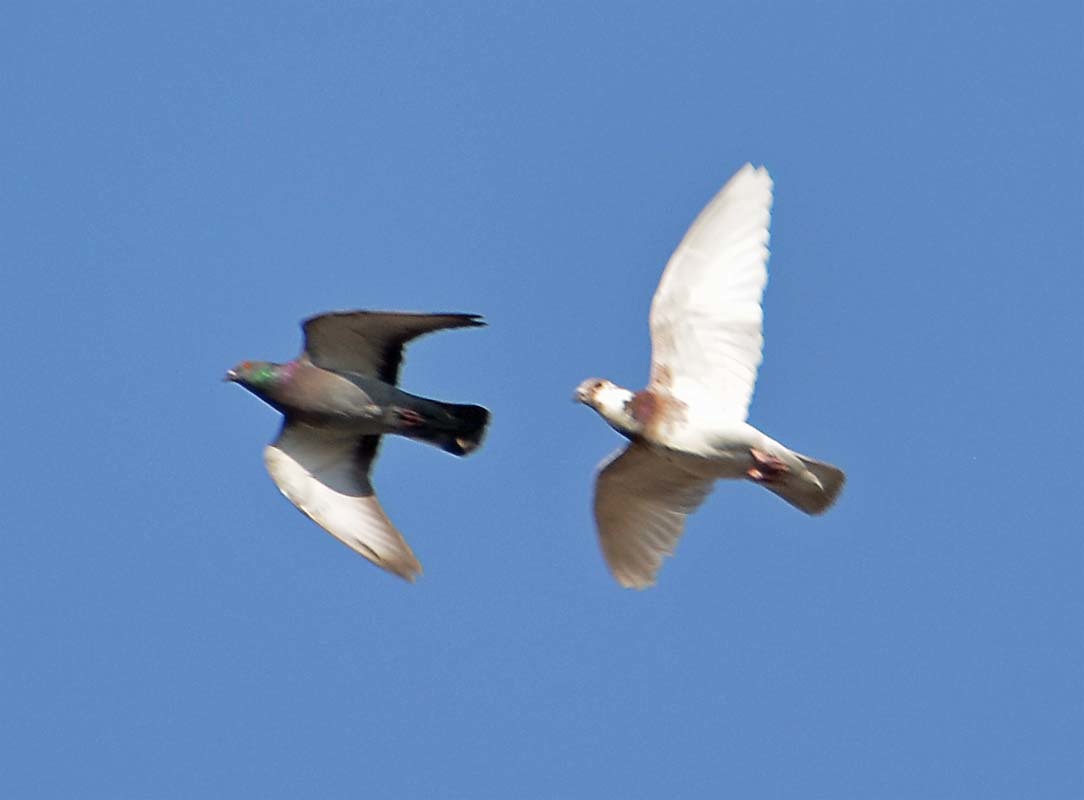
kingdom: Animalia
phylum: Chordata
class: Aves
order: Columbiformes
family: Columbidae
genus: Columba
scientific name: Columba livia
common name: Rock pigeon
